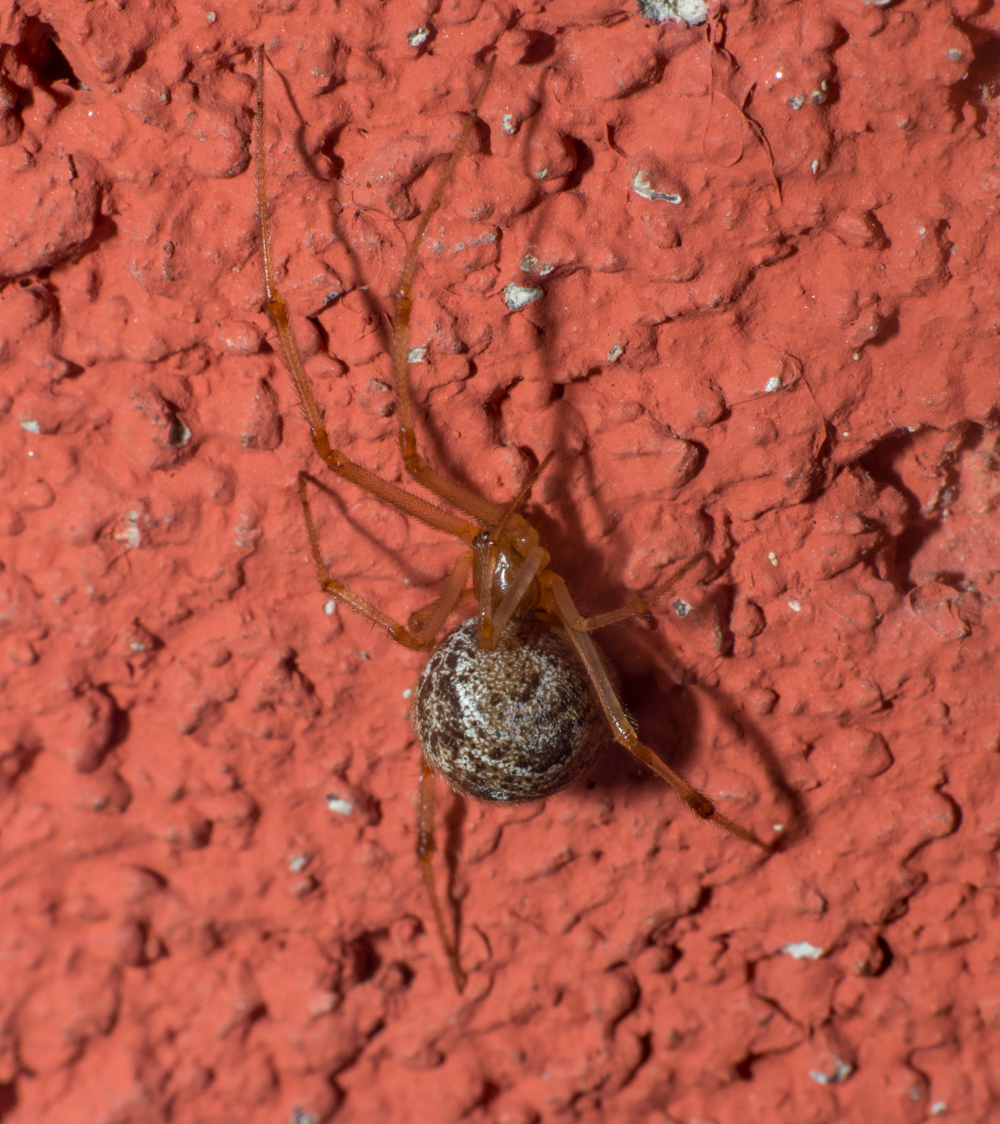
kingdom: Animalia
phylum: Arthropoda
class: Arachnida
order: Araneae
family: Theridiidae
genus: Parasteatoda
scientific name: Parasteatoda tepidariorum
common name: Common house spider
